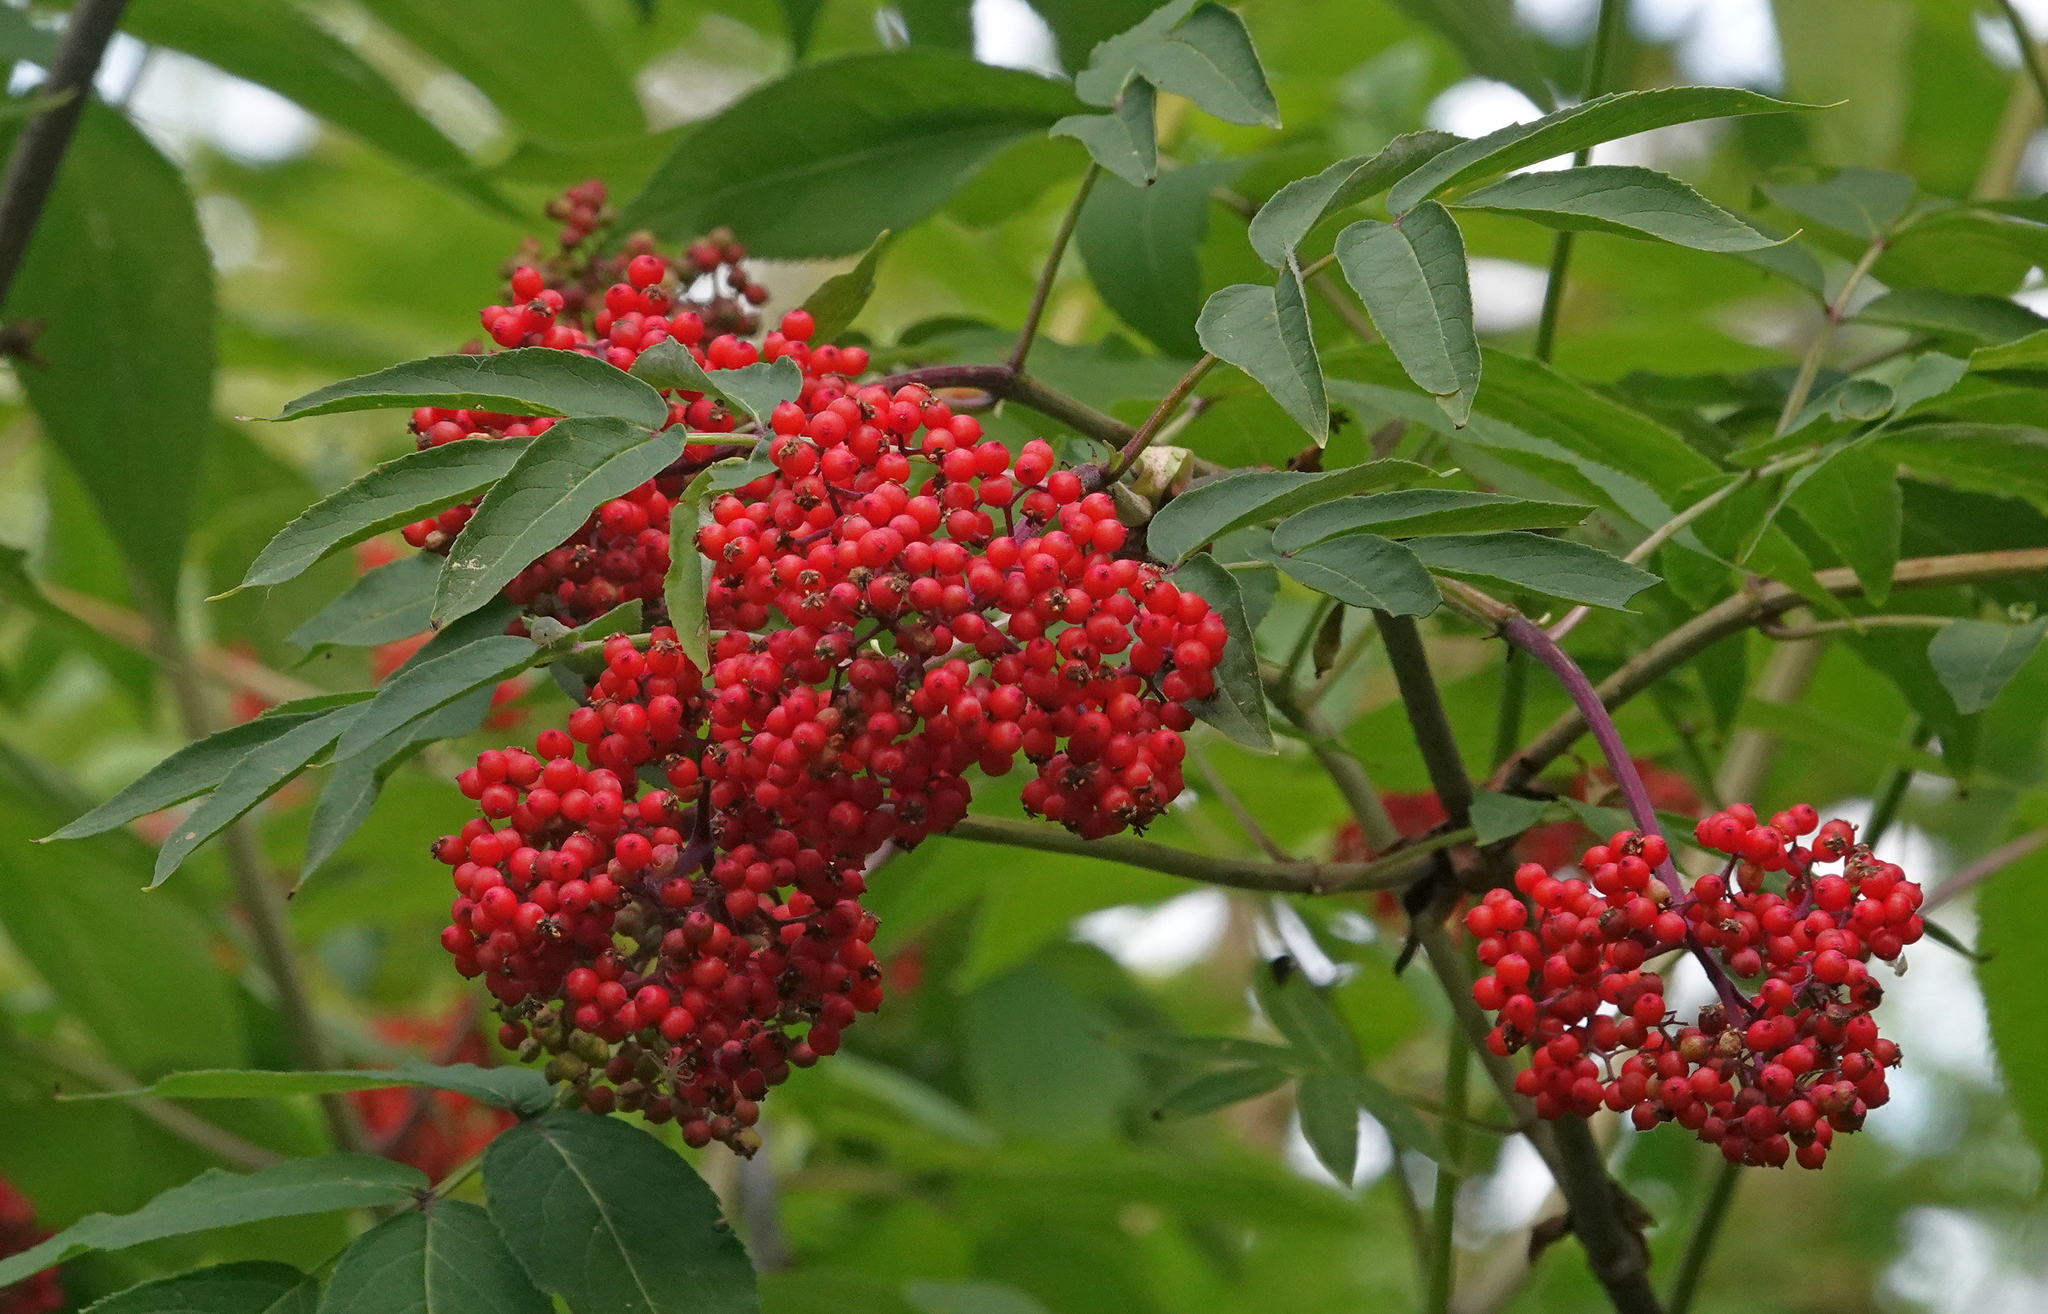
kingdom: Plantae
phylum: Tracheophyta
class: Magnoliopsida
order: Dipsacales
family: Viburnaceae
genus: Sambucus
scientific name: Sambucus racemosa
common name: Red-berried elder
